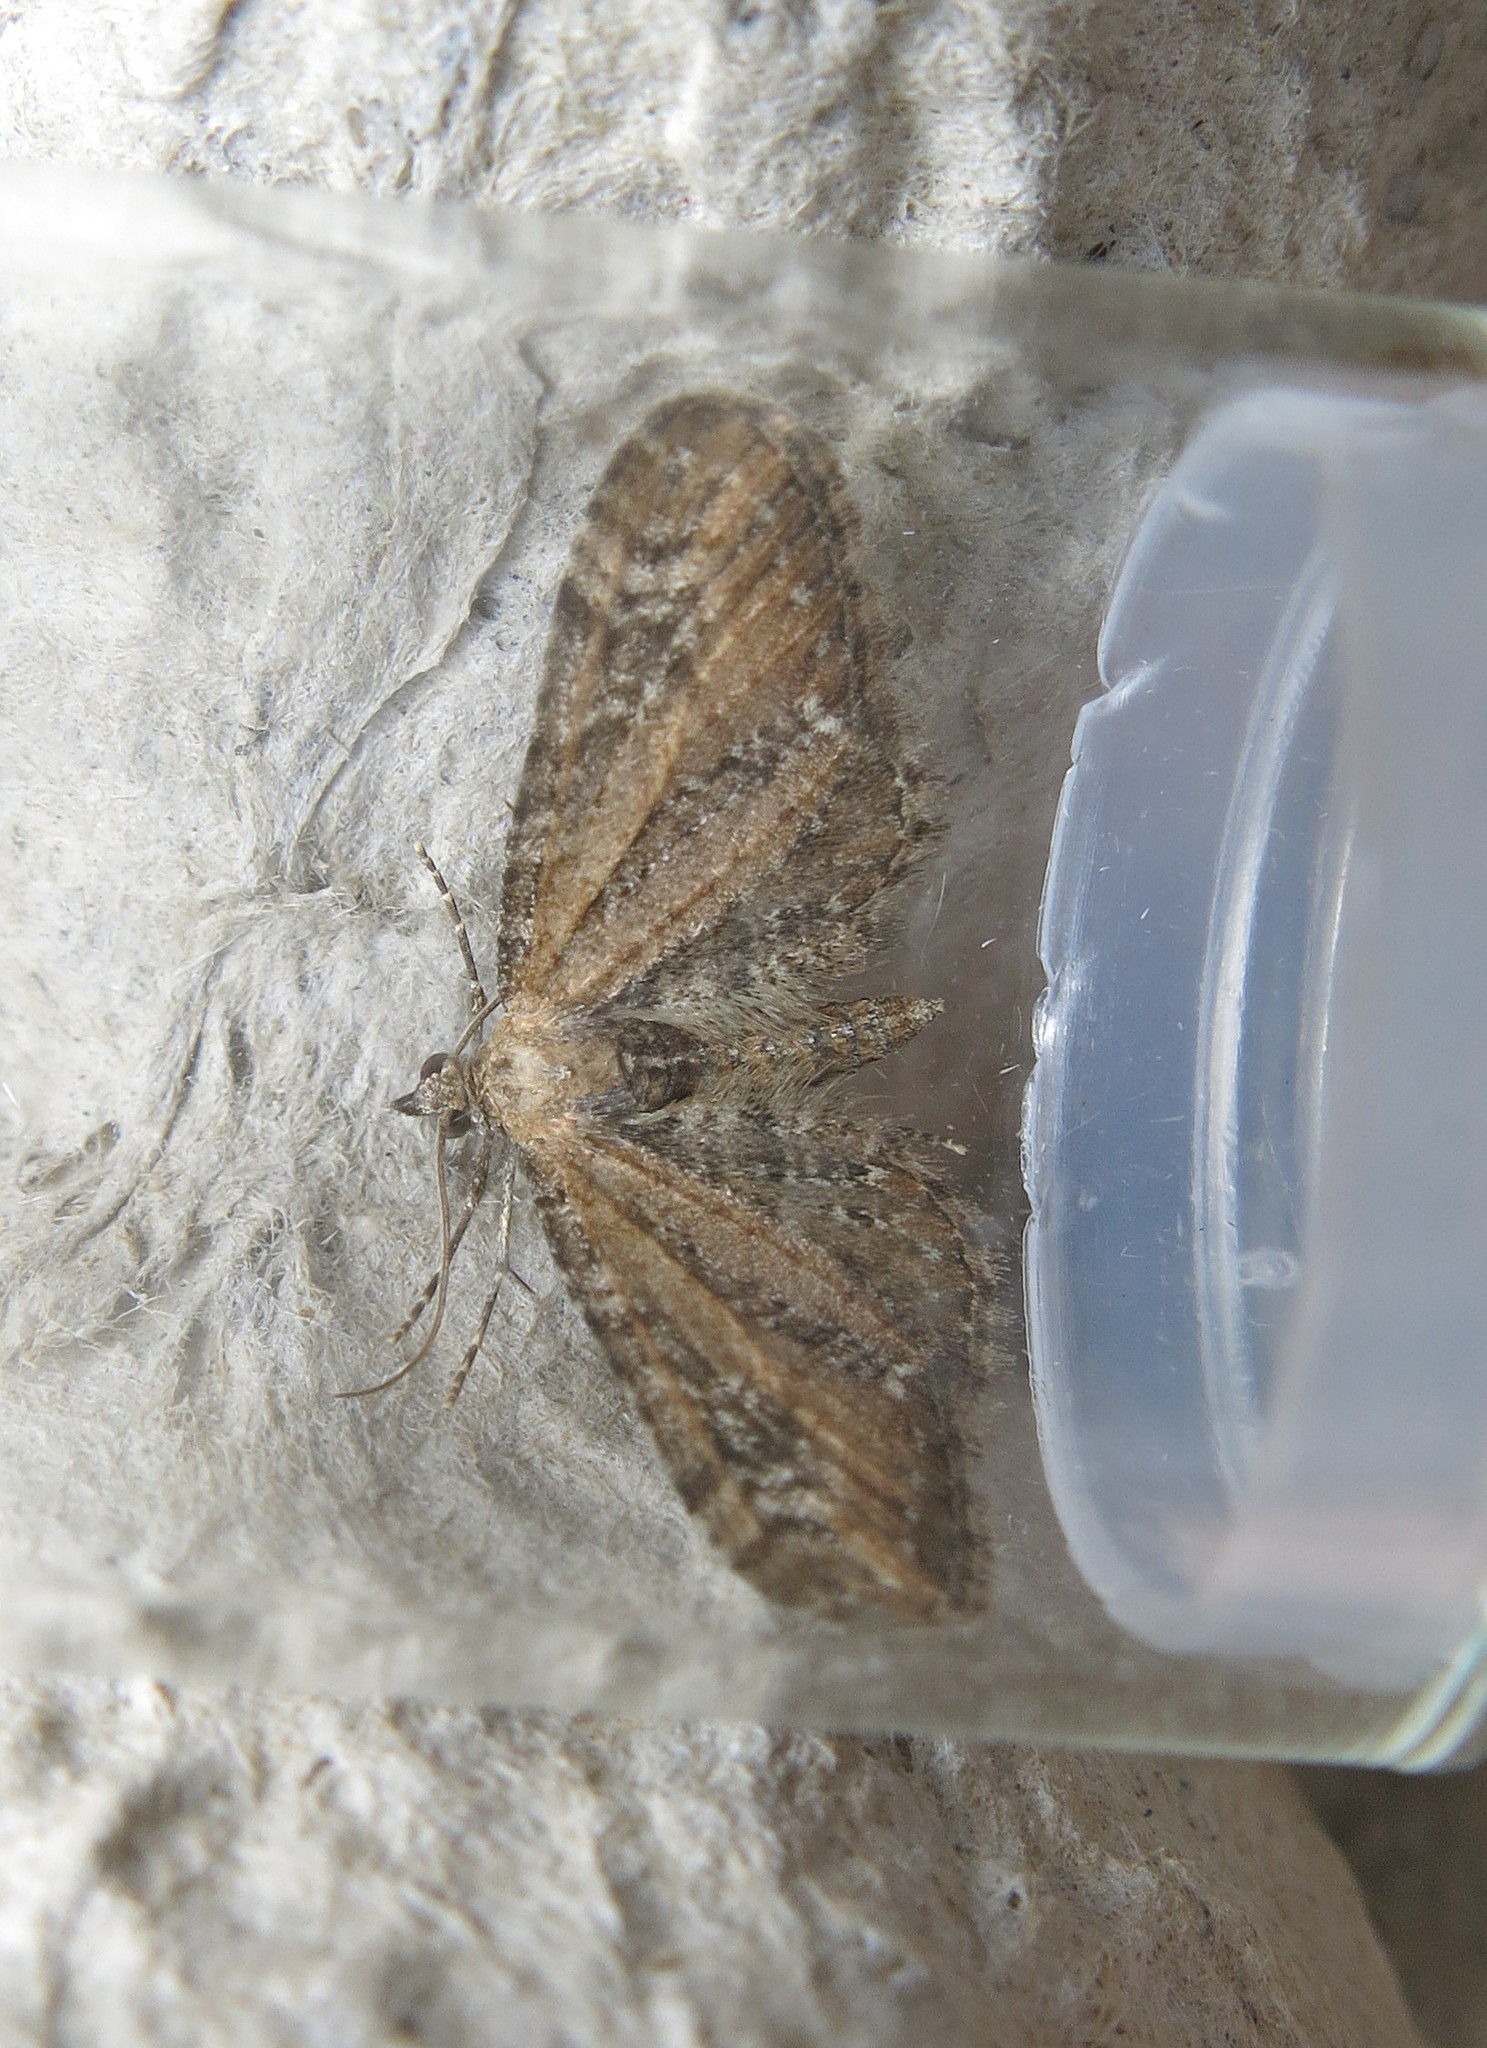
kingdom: Animalia
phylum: Arthropoda
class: Insecta
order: Lepidoptera
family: Geometridae
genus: Eupithecia
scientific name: Eupithecia vulgata
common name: Common pug
